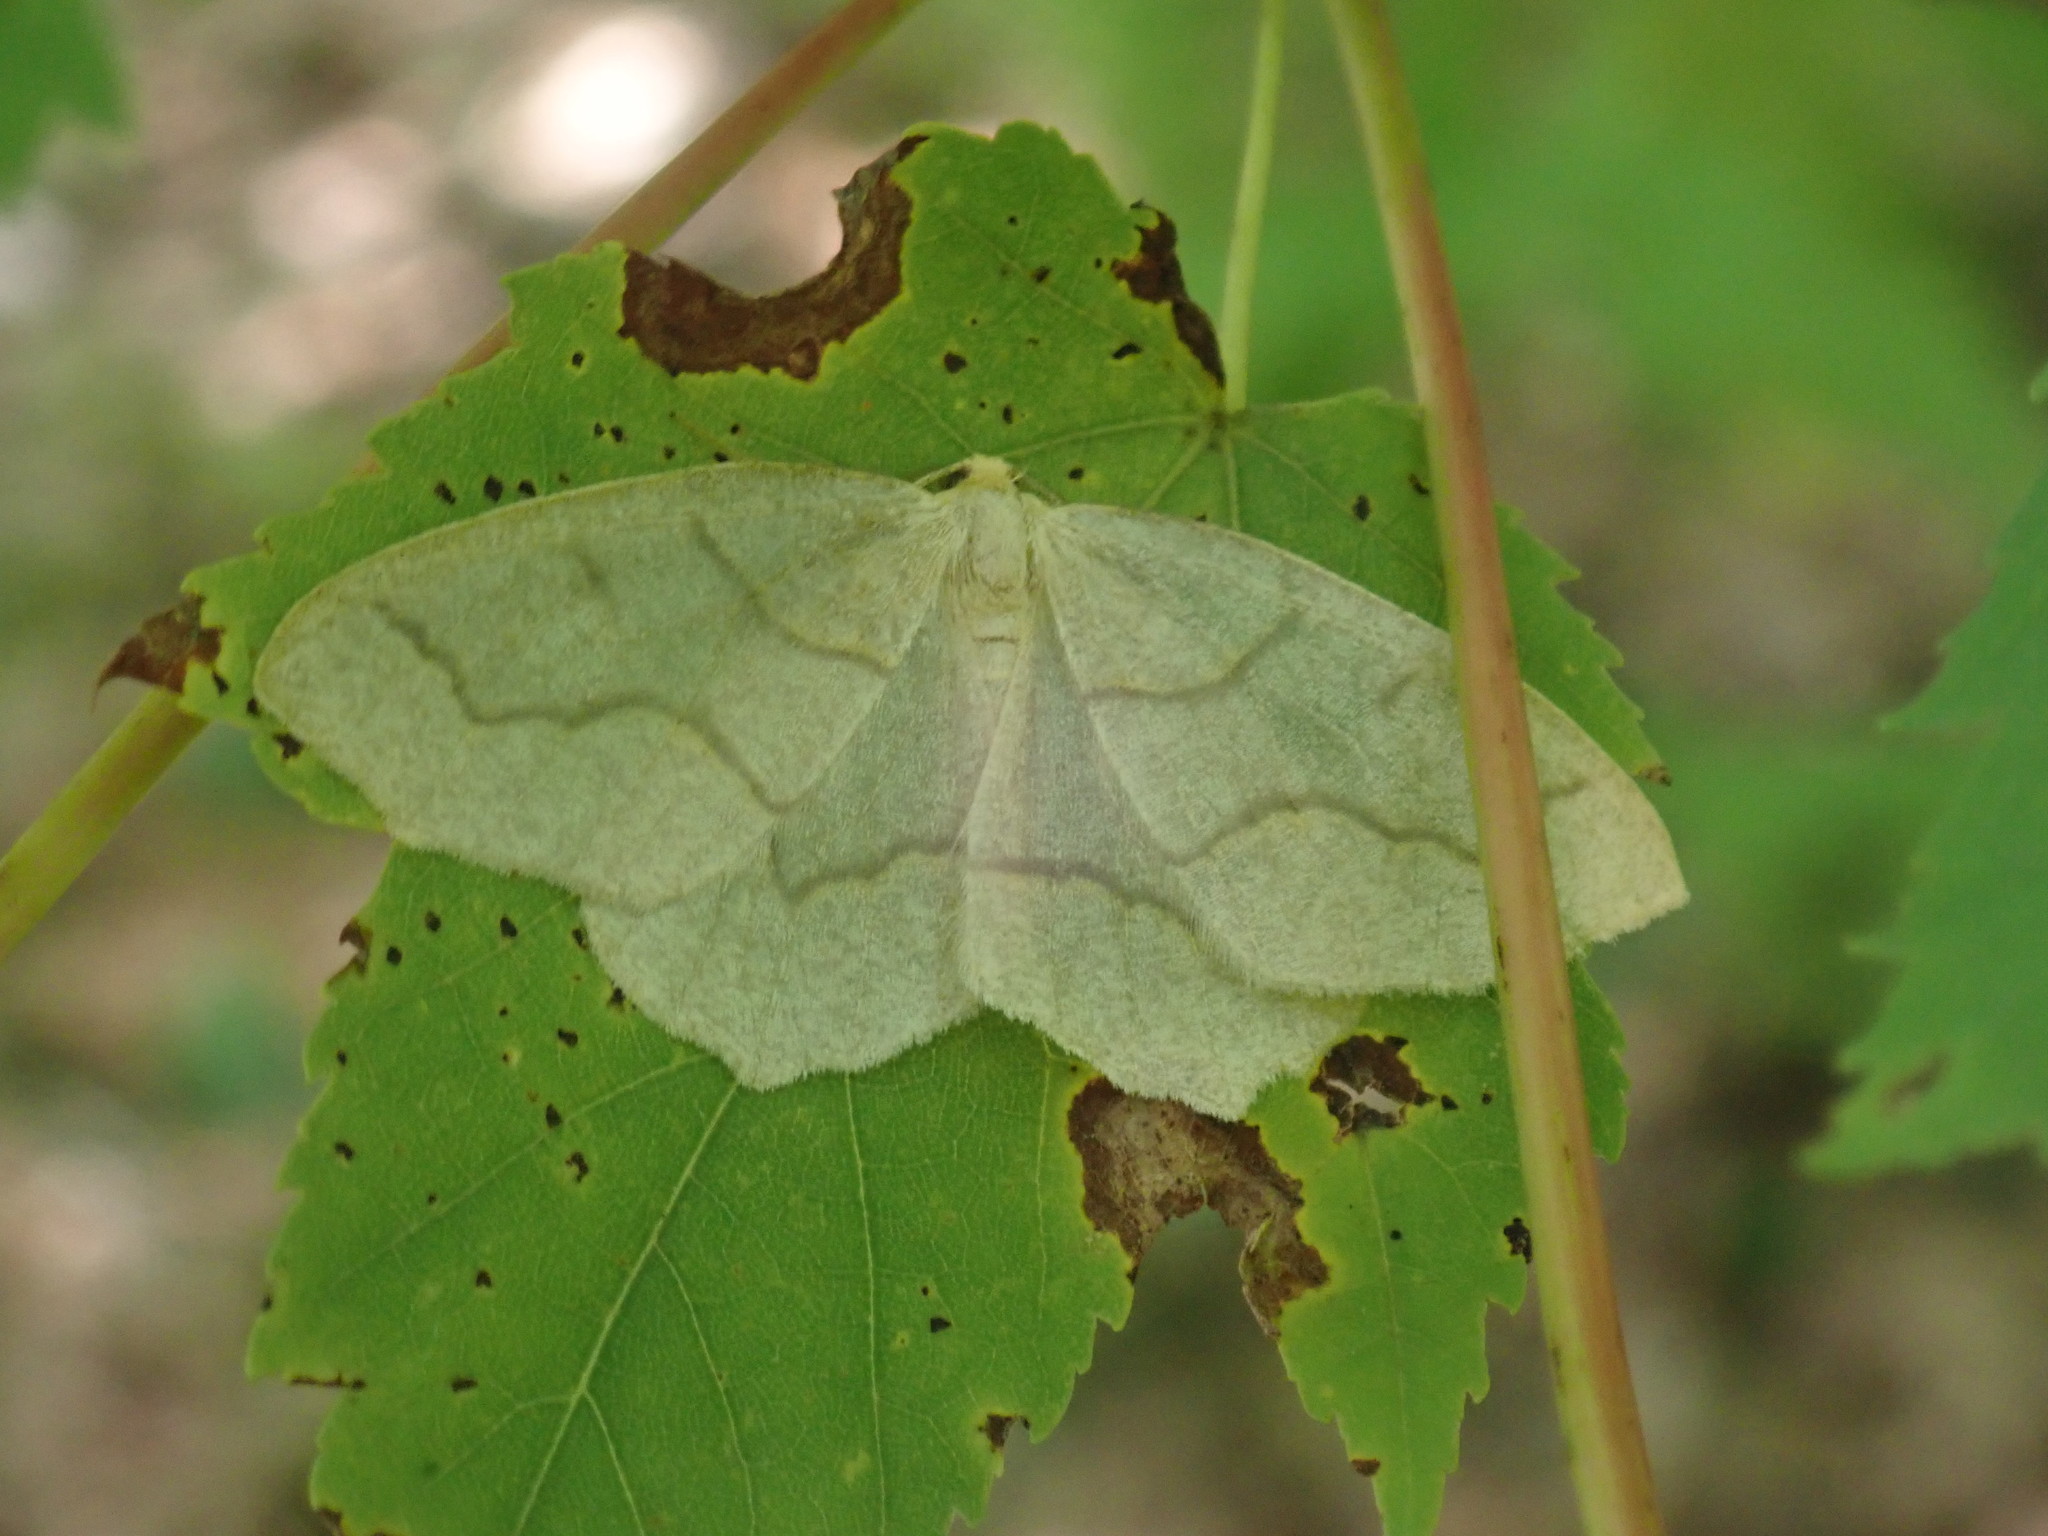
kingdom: Animalia
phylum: Arthropoda
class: Insecta
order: Lepidoptera
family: Geometridae
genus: Lambdina
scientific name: Lambdina fiscellaria
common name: Hemlock looper
